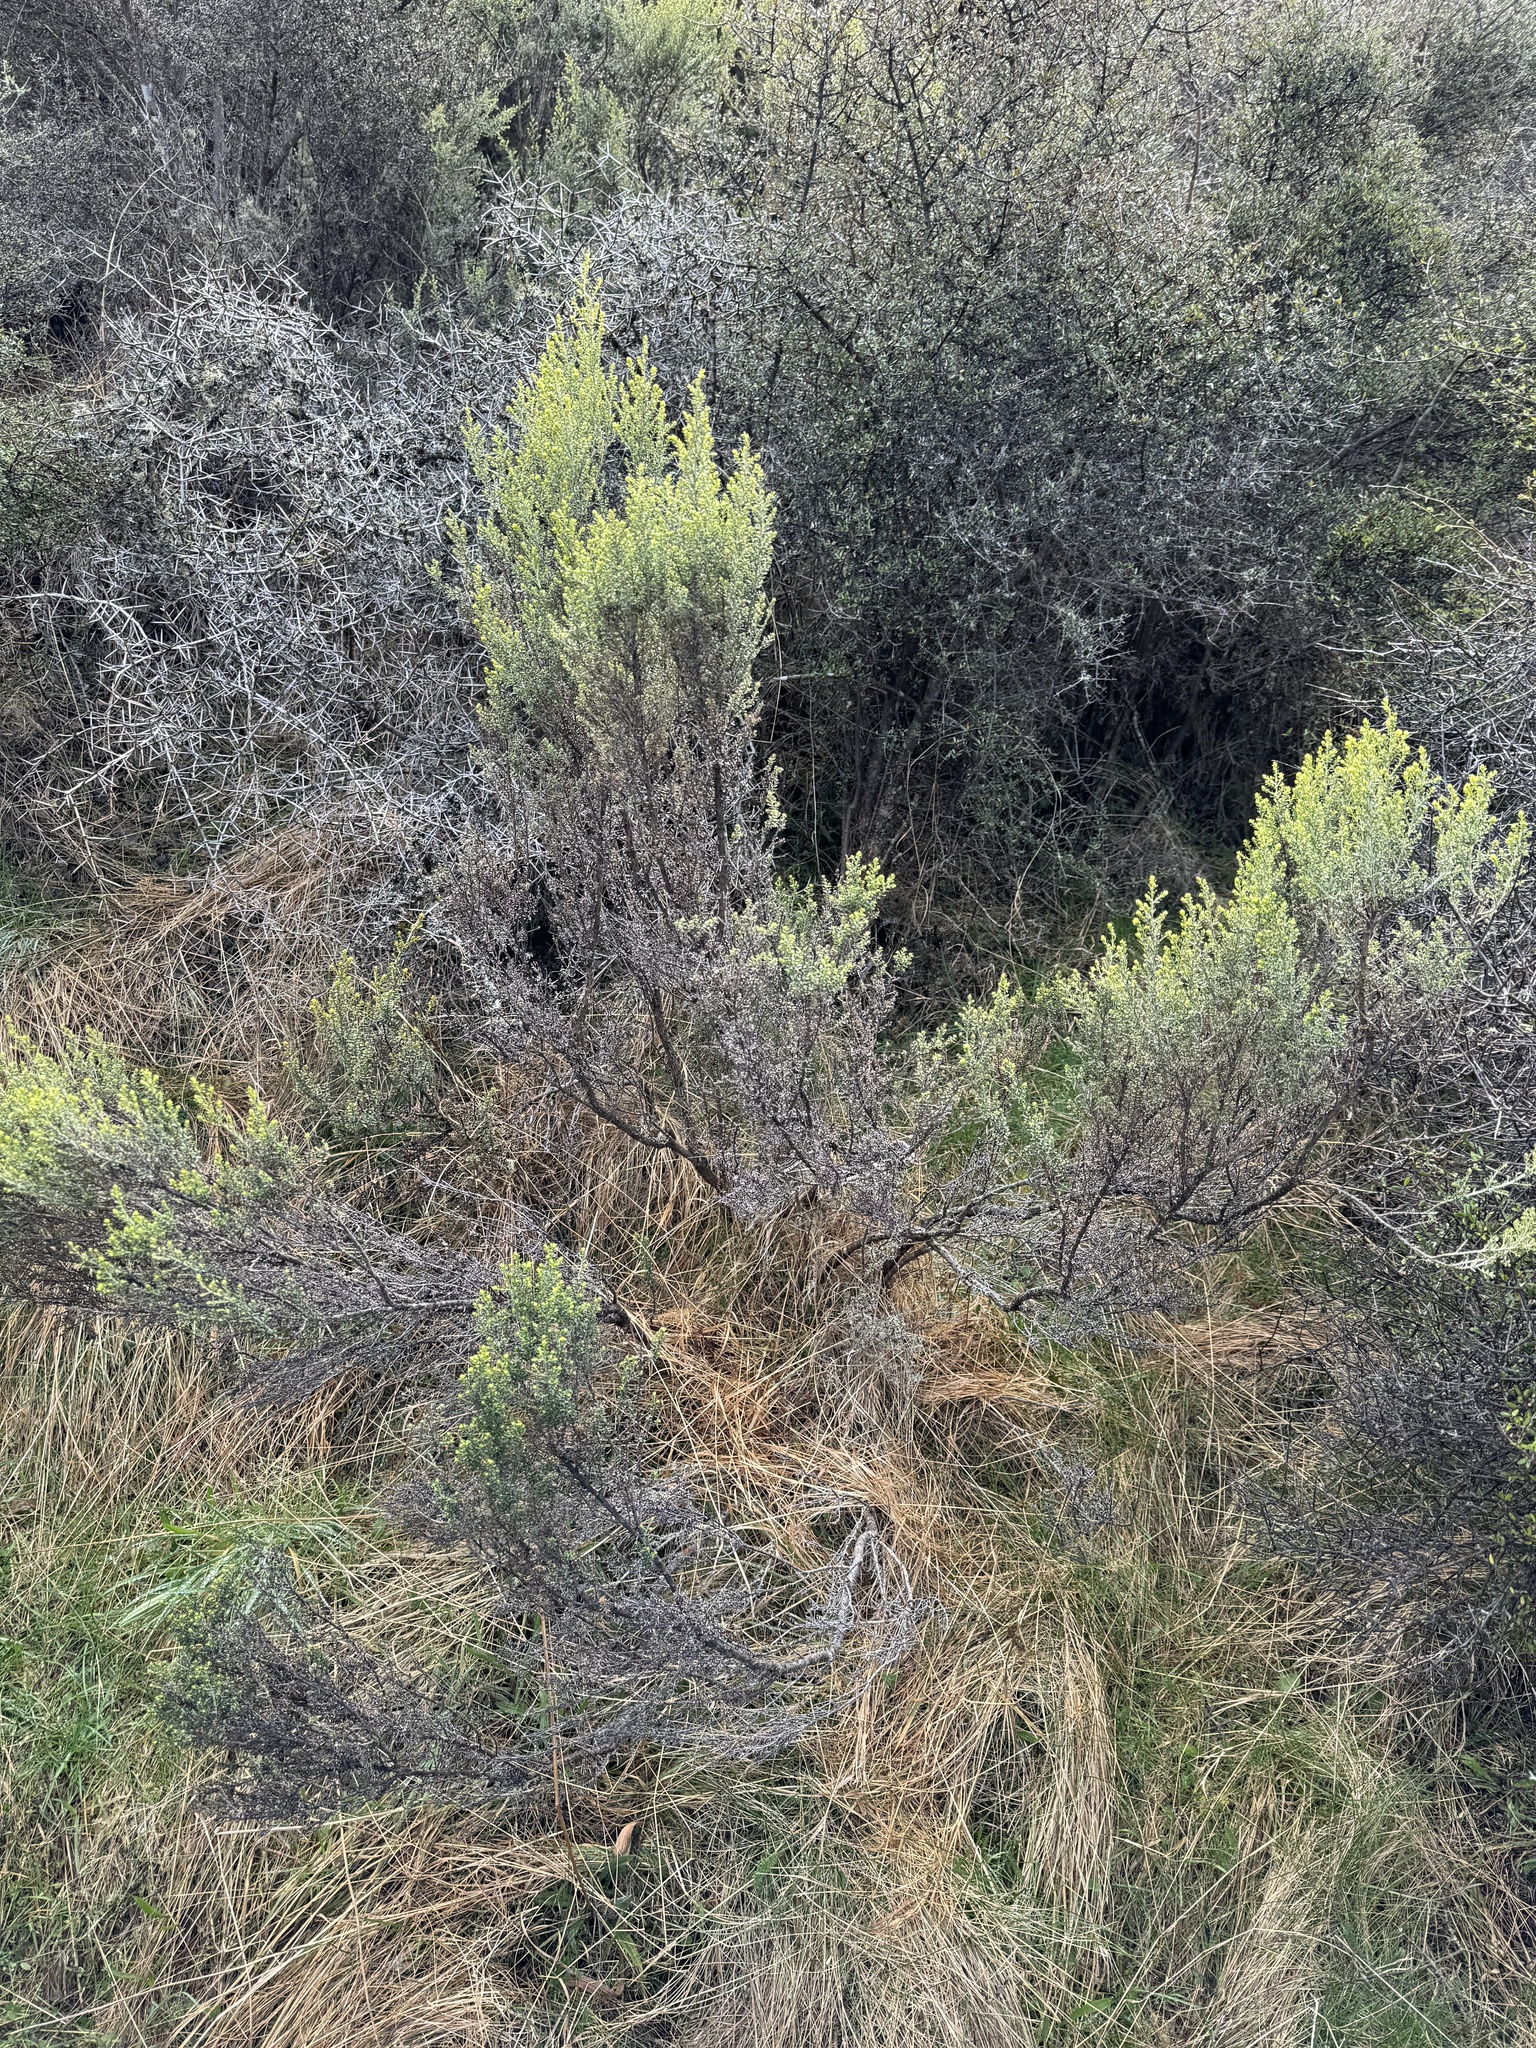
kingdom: Plantae
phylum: Tracheophyta
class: Magnoliopsida
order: Asterales
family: Asteraceae
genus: Ozothamnus
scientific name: Ozothamnus leptophyllus
